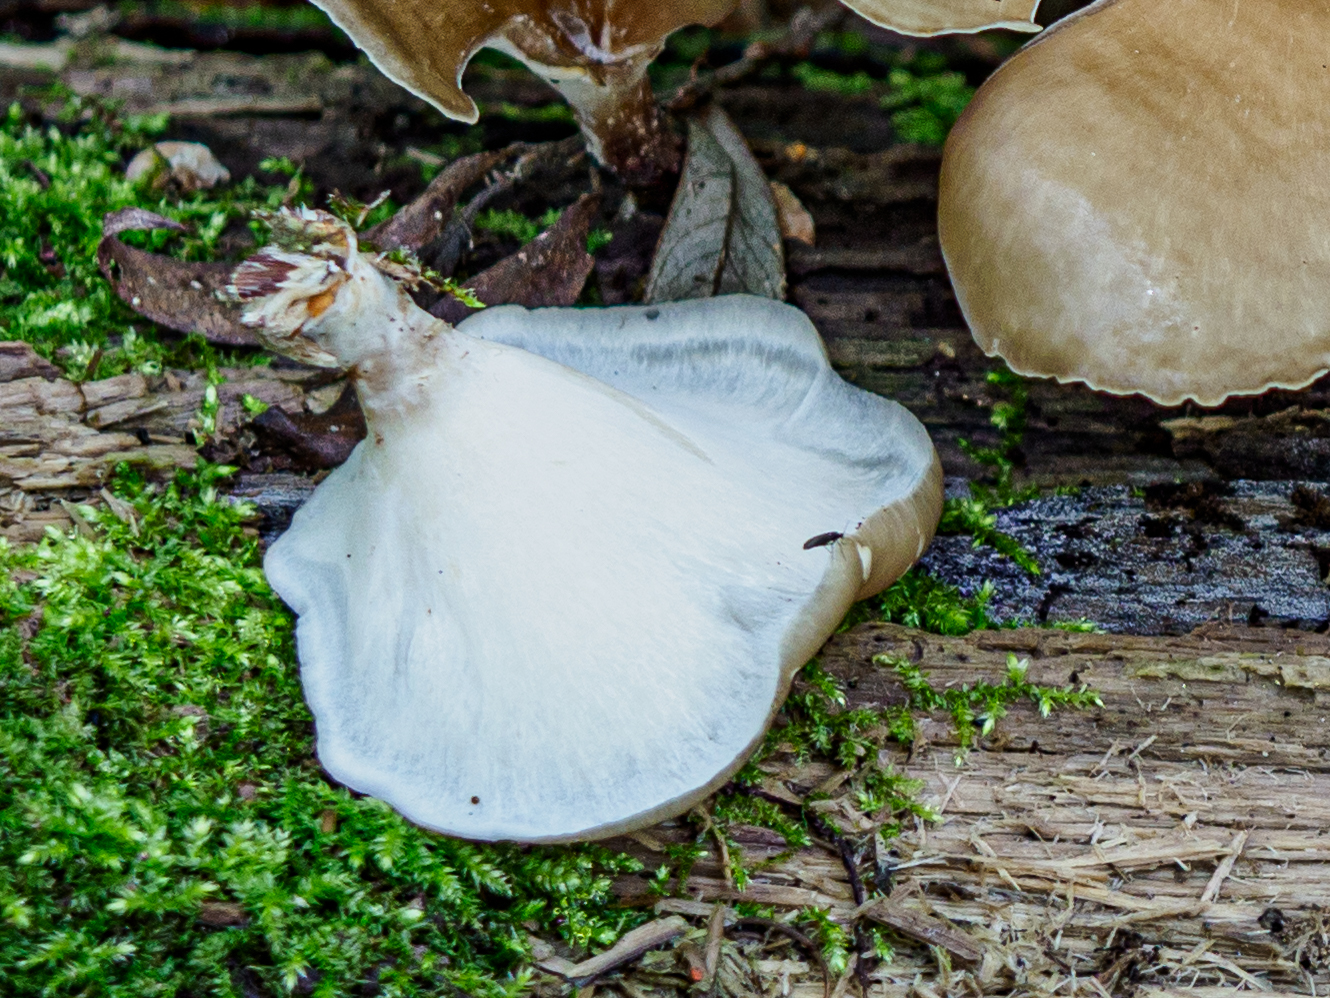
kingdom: Fungi
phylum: Basidiomycota
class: Agaricomycetes
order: Polyporales
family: Polyporaceae
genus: Picipes
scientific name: Picipes badius
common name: Bay polypore
